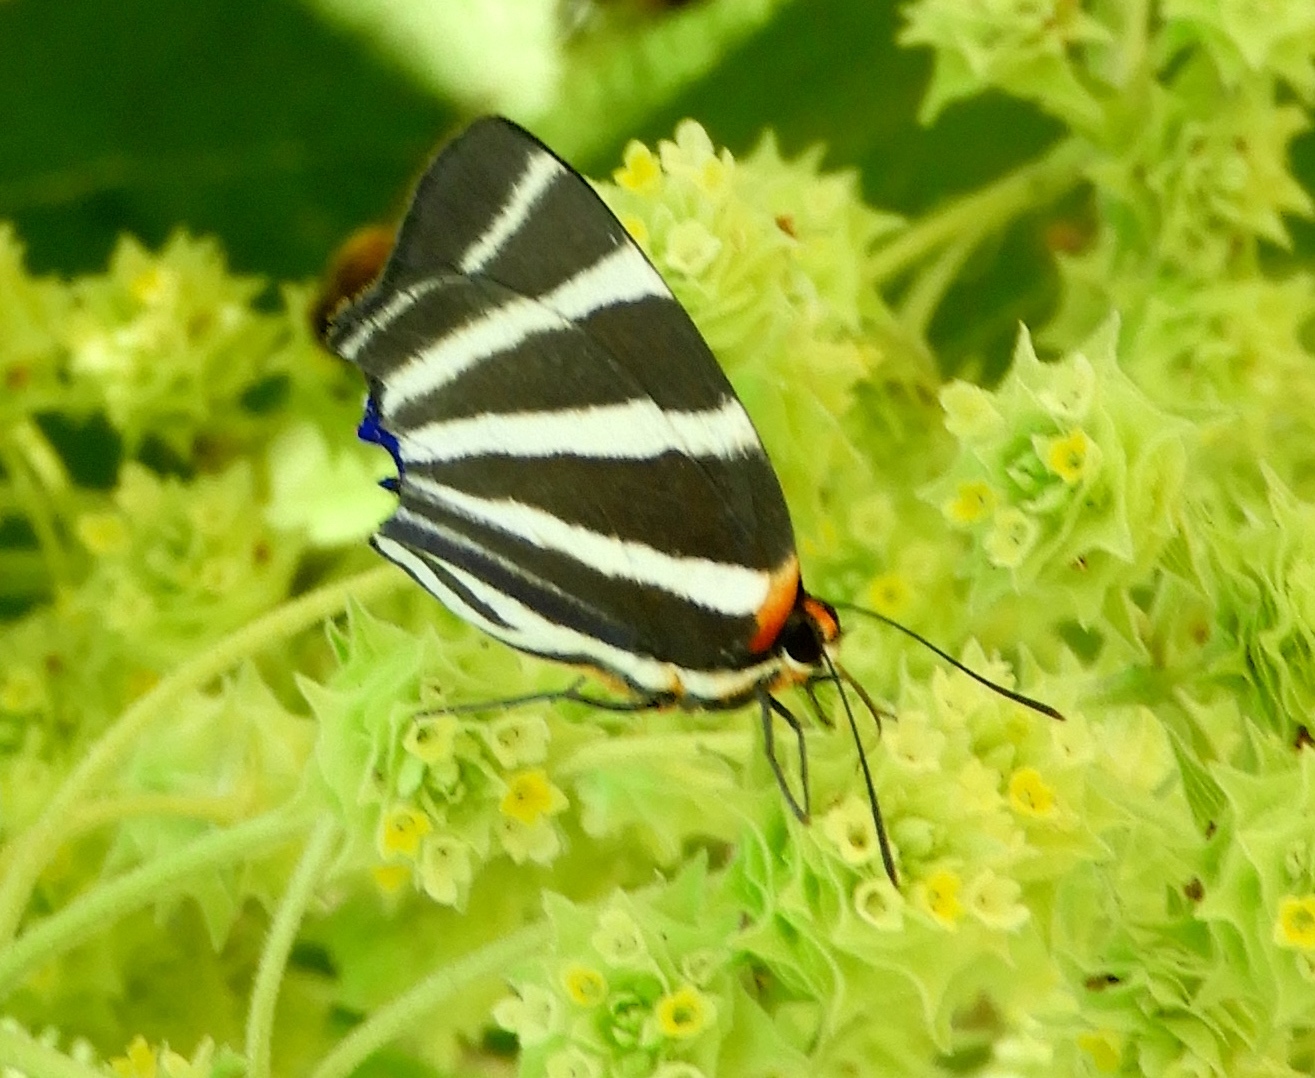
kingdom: Animalia
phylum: Arthropoda
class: Insecta
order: Lepidoptera
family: Lycaenidae
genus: Thecla
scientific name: Thecla bathildis
